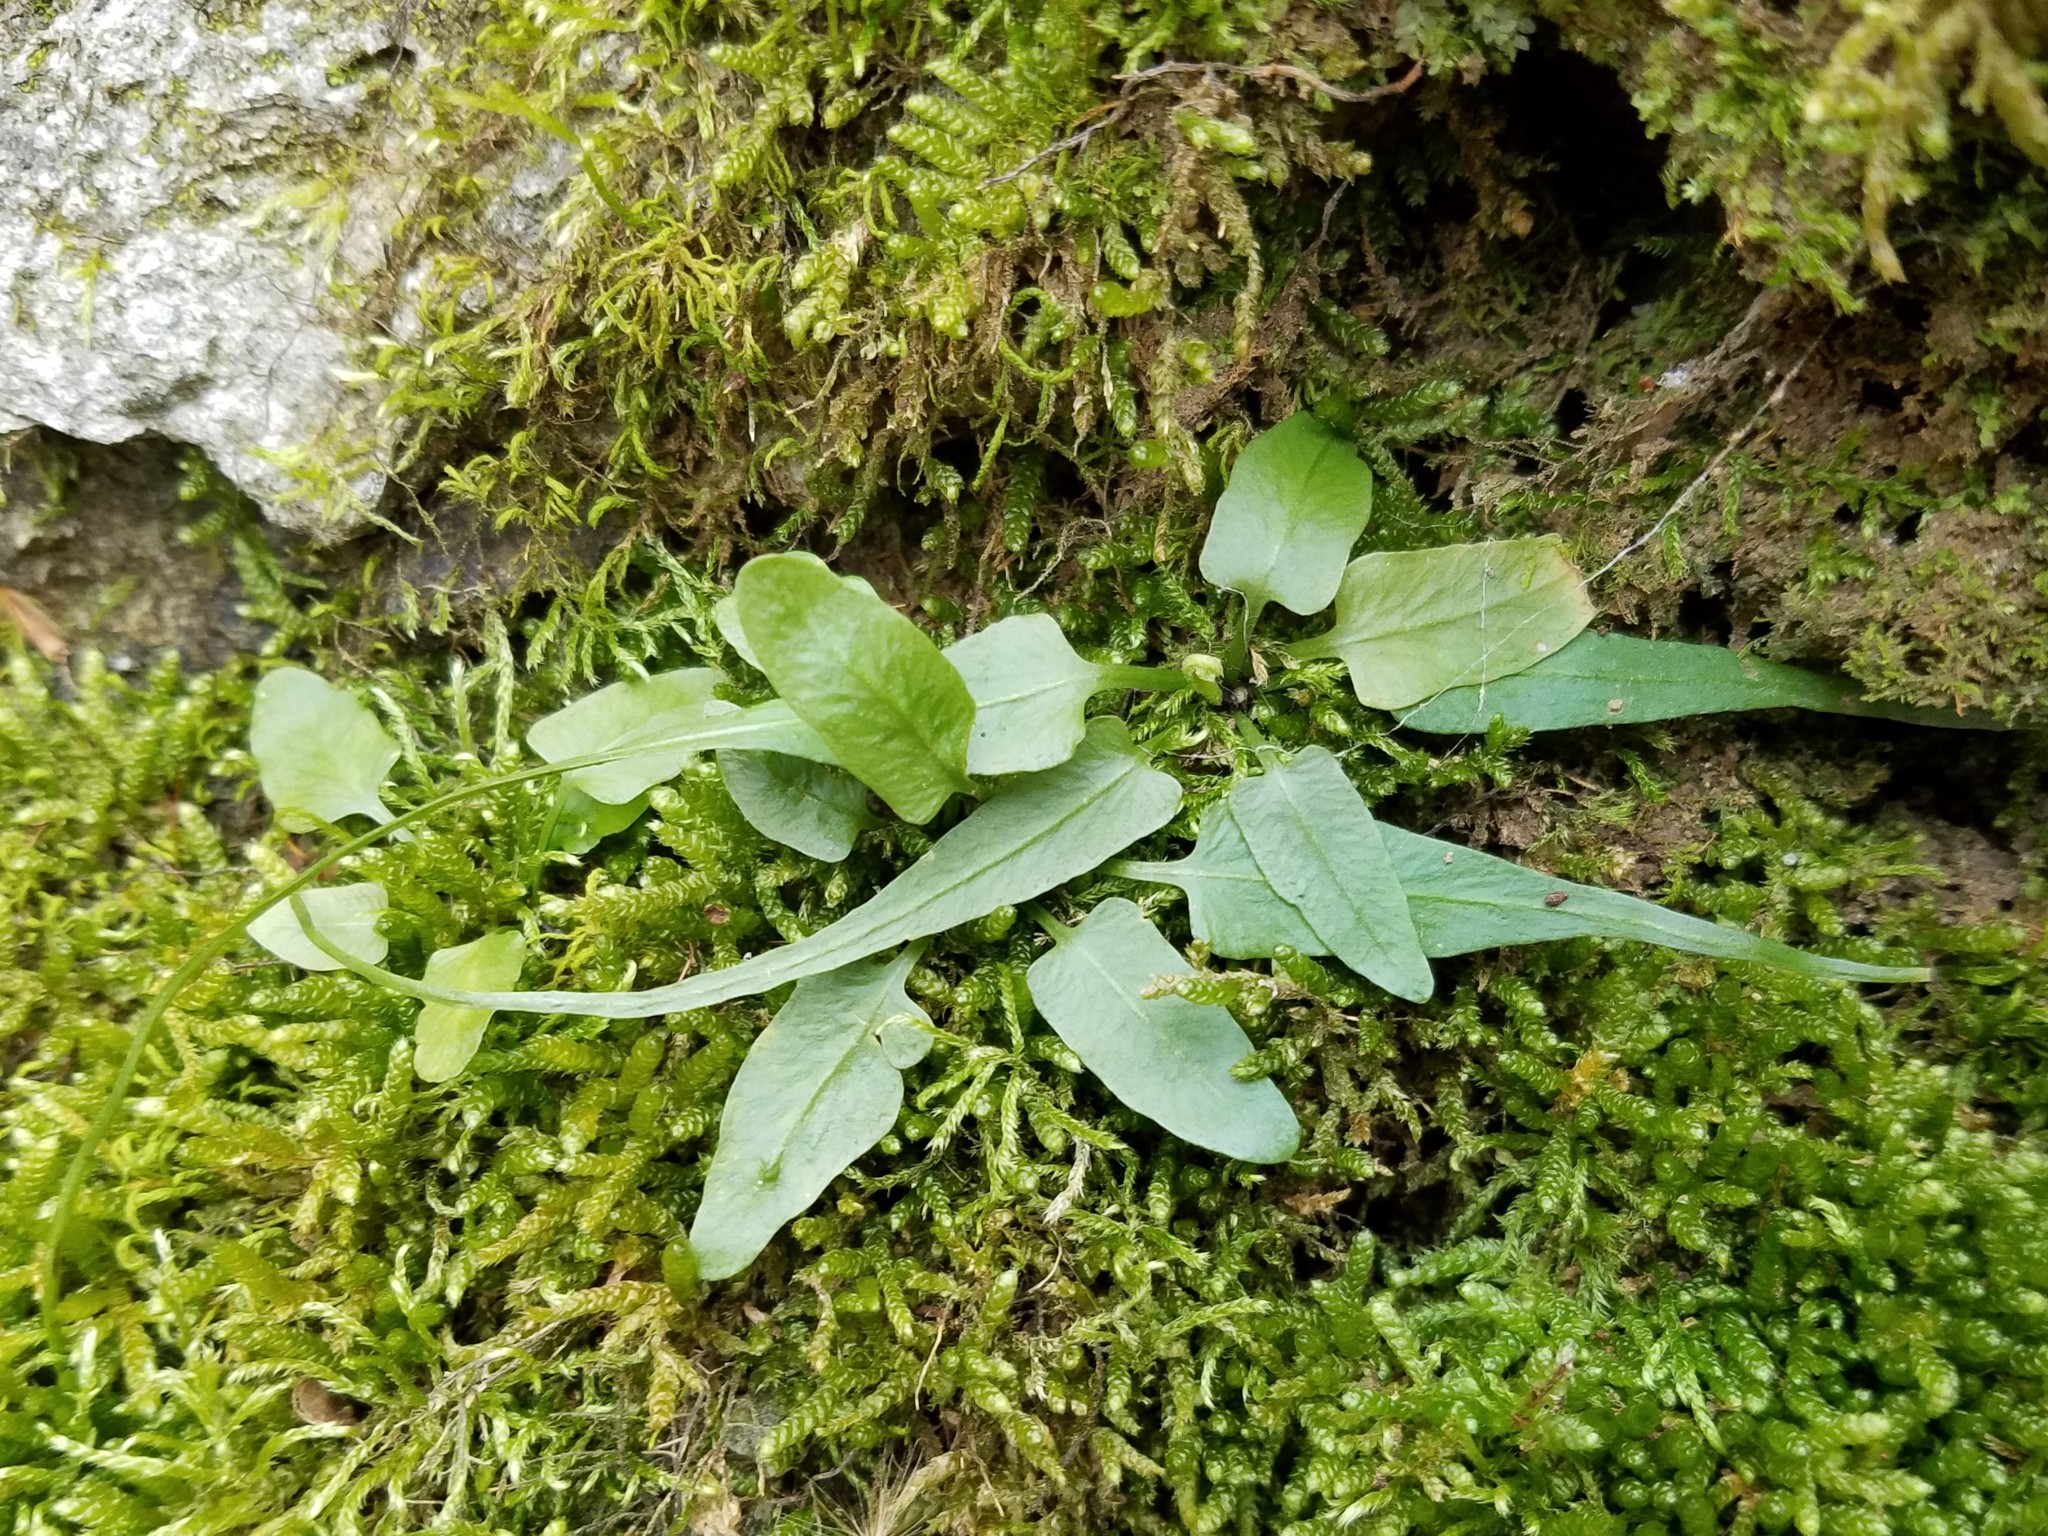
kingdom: Plantae
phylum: Tracheophyta
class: Polypodiopsida
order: Polypodiales
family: Aspleniaceae
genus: Asplenium
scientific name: Asplenium rhizophyllum
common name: Walking fern
